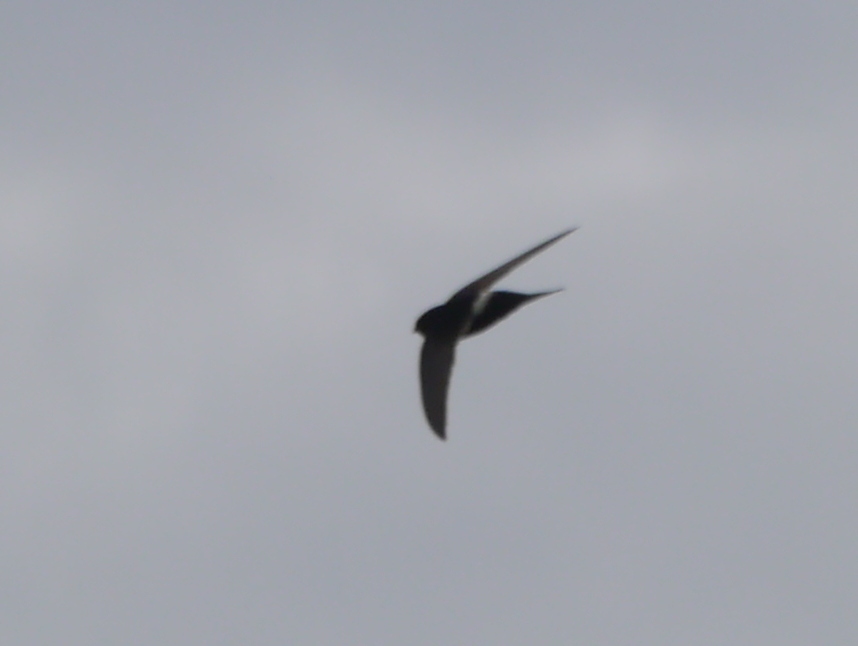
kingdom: Animalia
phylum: Chordata
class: Aves
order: Apodiformes
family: Apodidae
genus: Apus
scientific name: Apus caffer
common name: White-rumped swift
